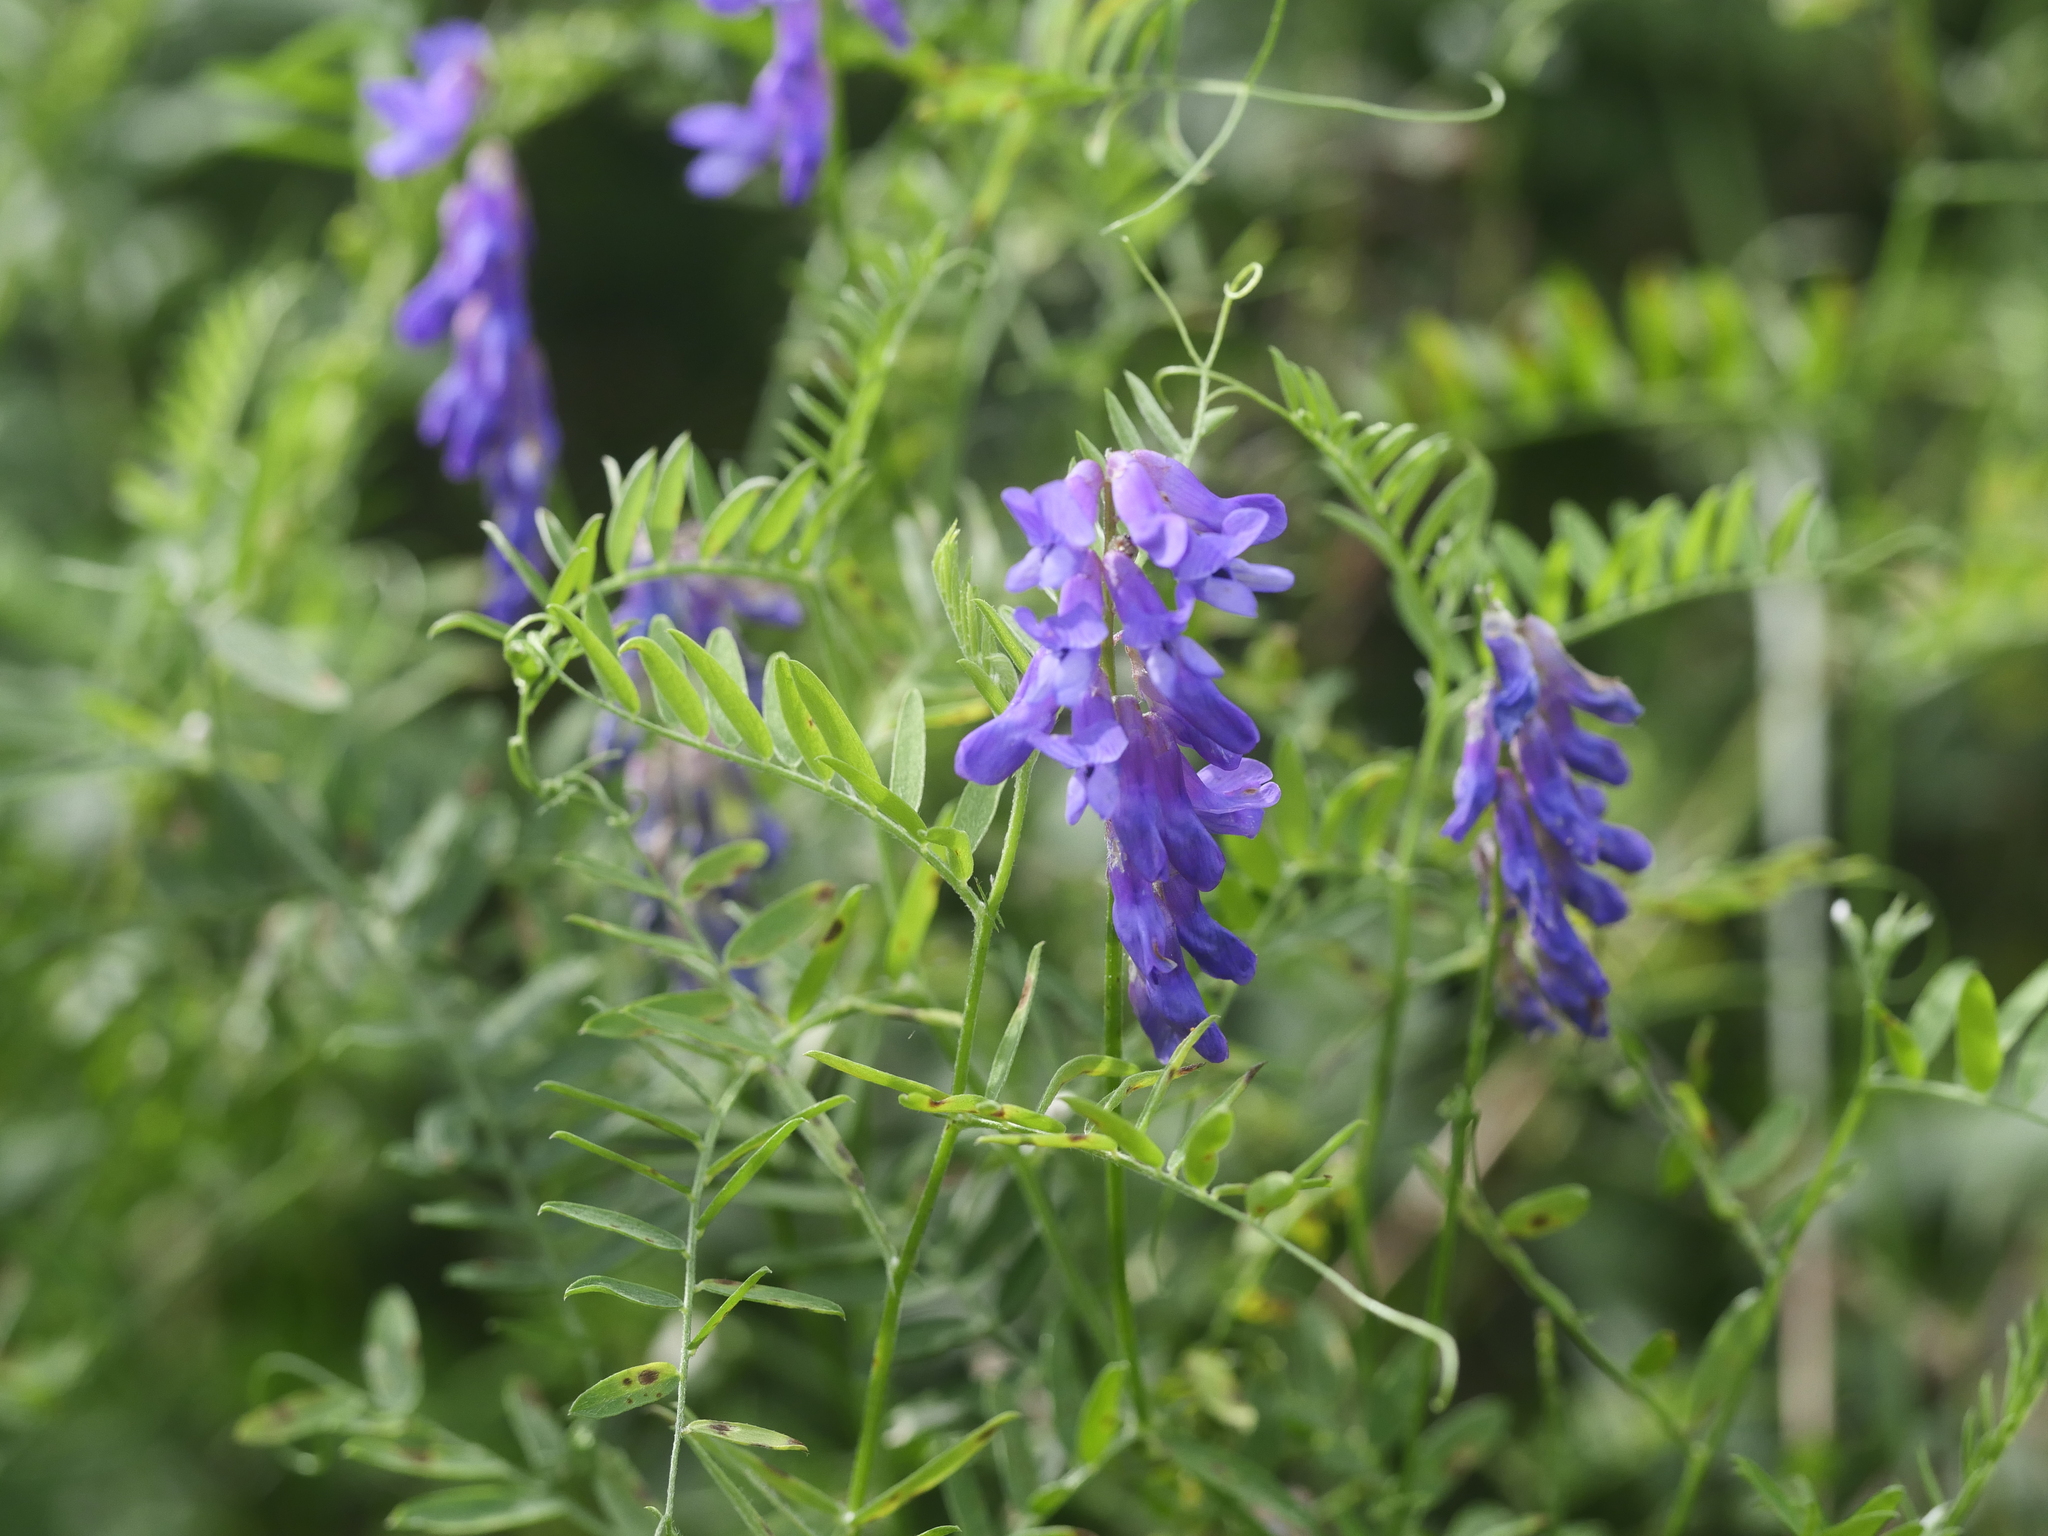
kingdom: Plantae
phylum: Tracheophyta
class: Magnoliopsida
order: Fabales
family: Fabaceae
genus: Vicia
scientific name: Vicia cracca
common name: Bird vetch
